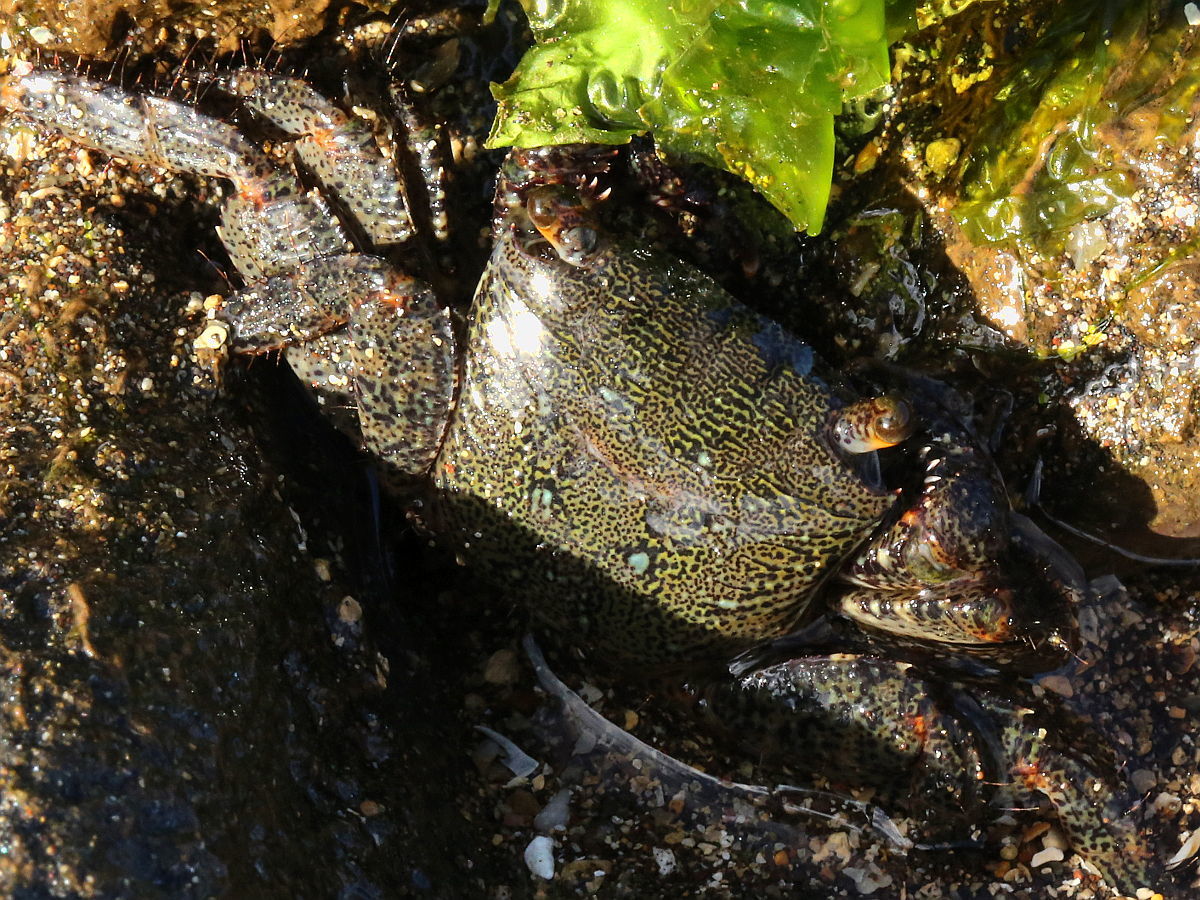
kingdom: Animalia
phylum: Arthropoda
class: Malacostraca
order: Decapoda
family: Grapsidae
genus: Metopograpsus
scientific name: Metopograpsus thukuhar
